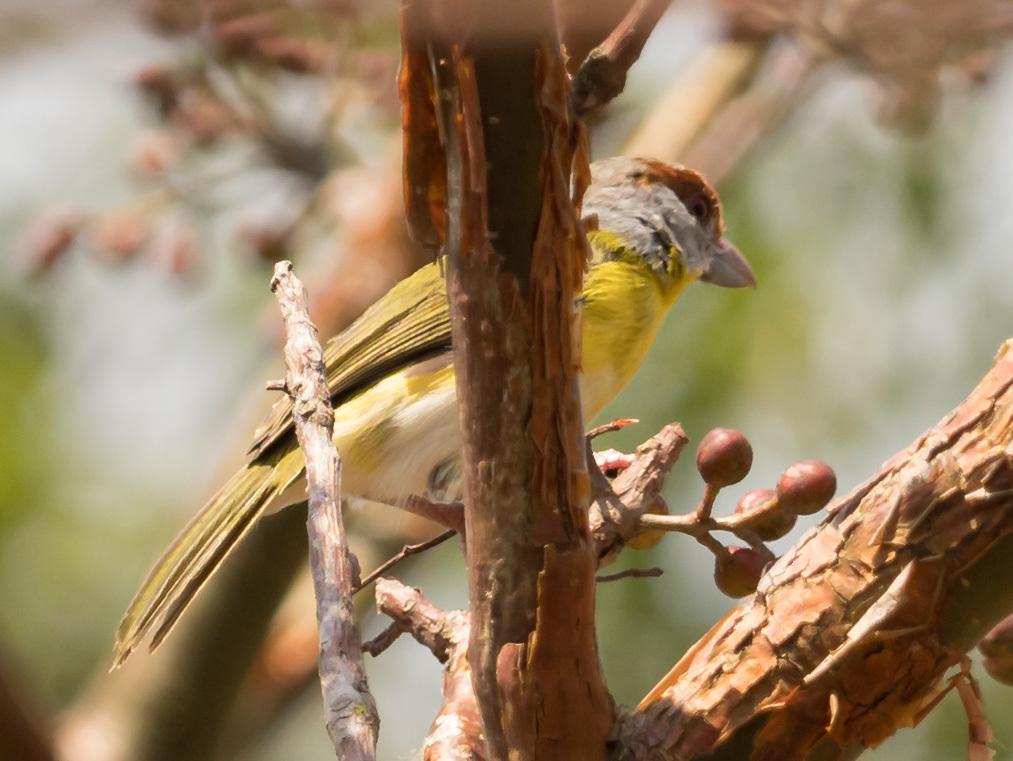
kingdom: Animalia
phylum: Chordata
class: Aves
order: Passeriformes
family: Vireonidae
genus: Cyclarhis
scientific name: Cyclarhis gujanensis
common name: Rufous-browed peppershrike
